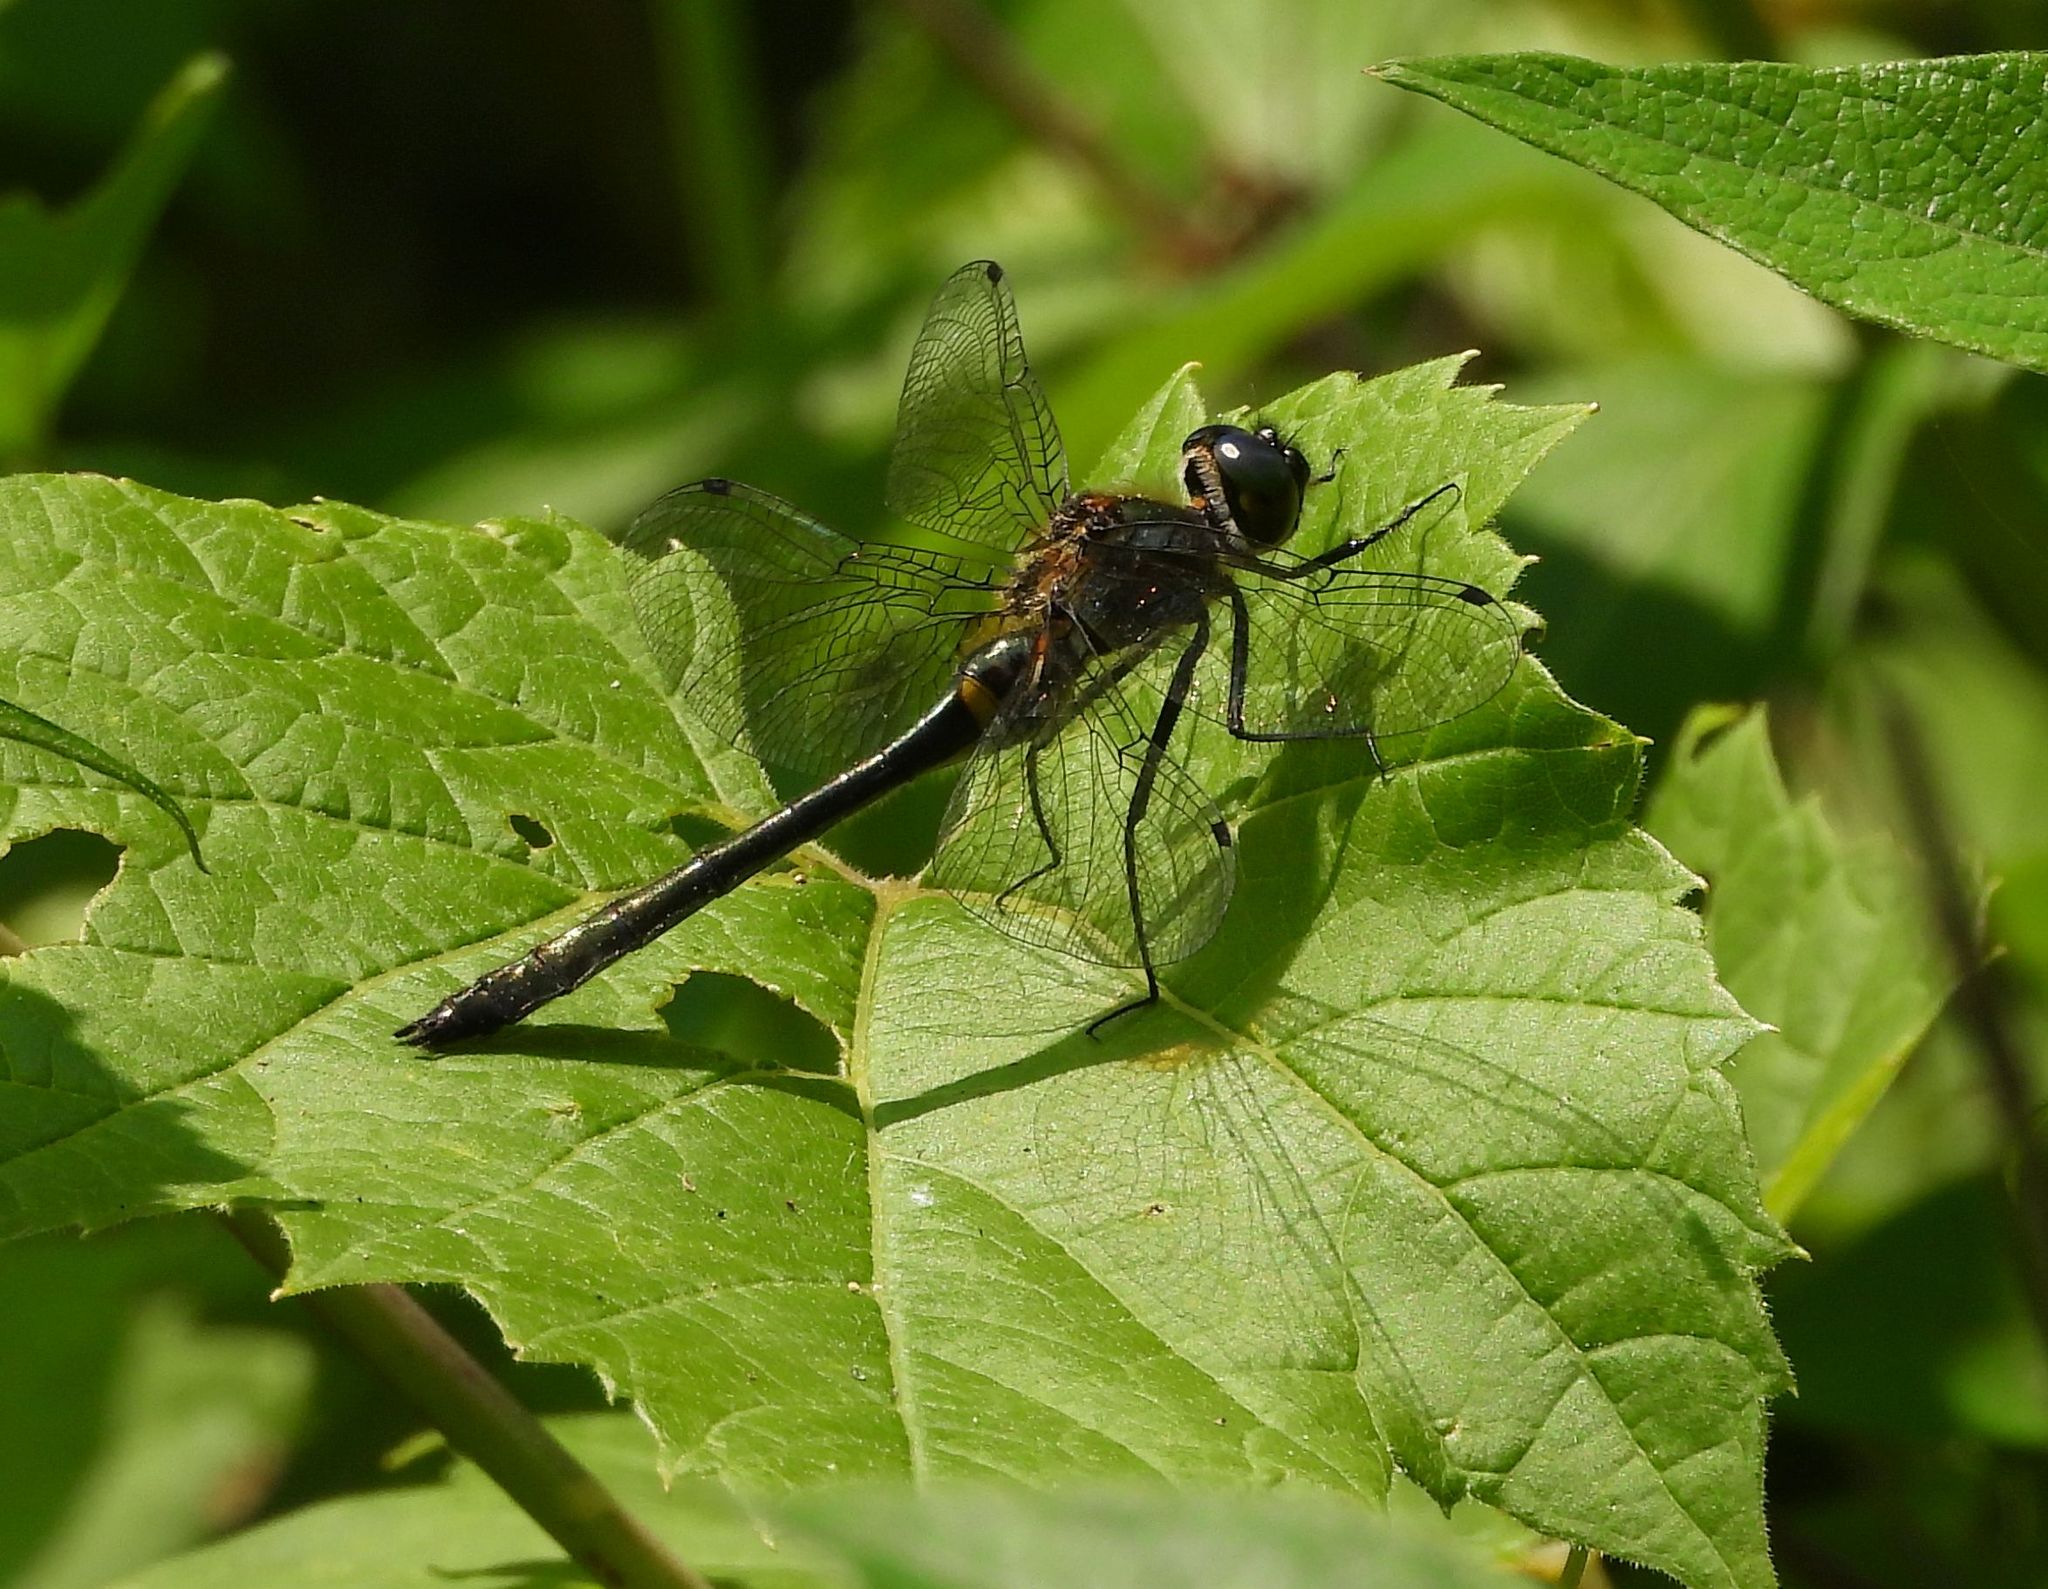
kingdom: Animalia
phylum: Arthropoda
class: Insecta
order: Odonata
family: Corduliidae
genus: Dorocordulia
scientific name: Dorocordulia libera
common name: Racket-tailed emerald
